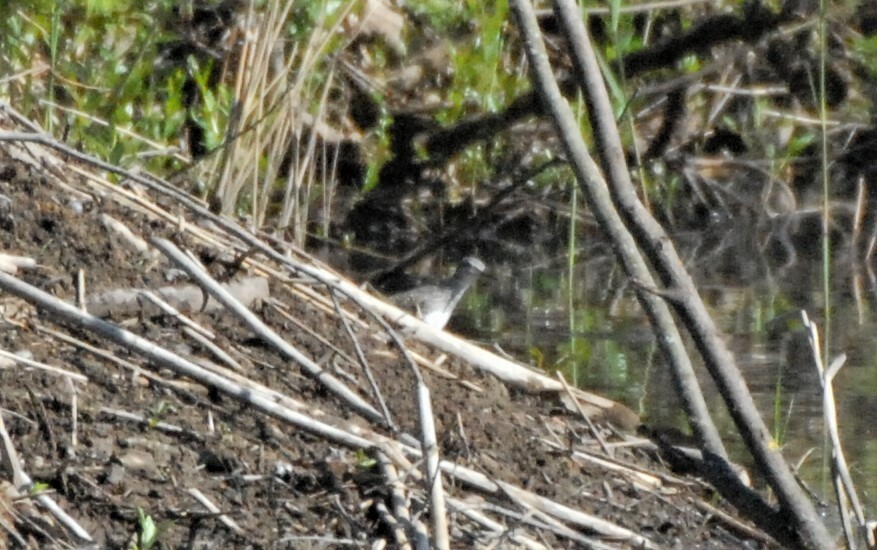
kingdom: Animalia
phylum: Chordata
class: Aves
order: Charadriiformes
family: Scolopacidae
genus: Tringa
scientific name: Tringa ochropus
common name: Green sandpiper
